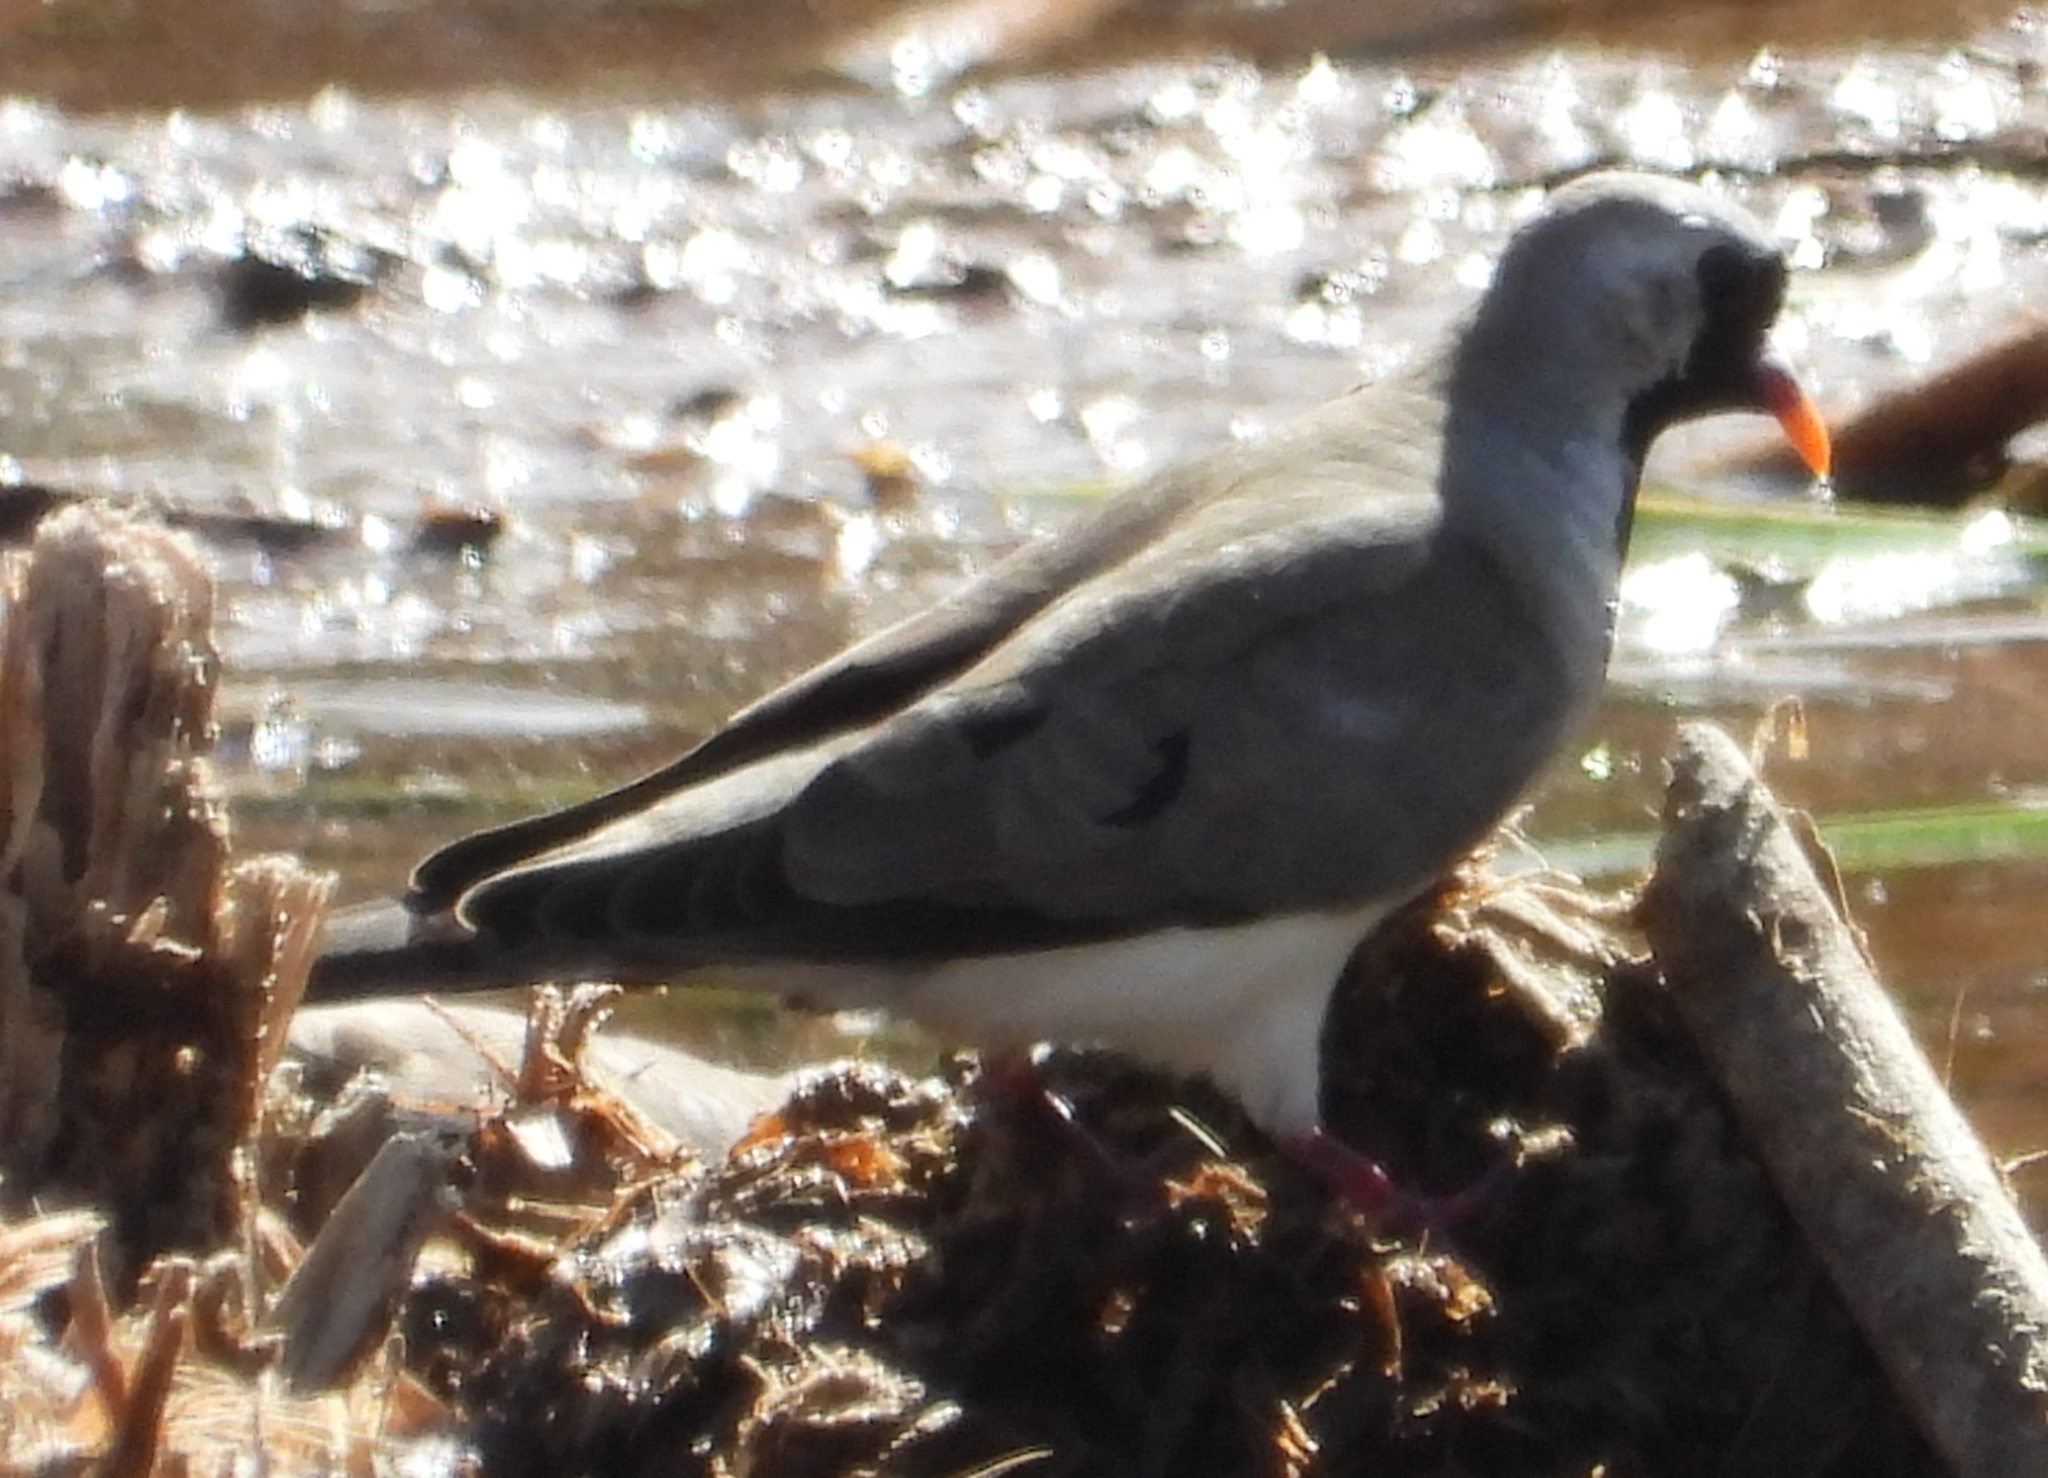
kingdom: Animalia
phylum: Chordata
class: Aves
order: Columbiformes
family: Columbidae
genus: Oena
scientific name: Oena capensis
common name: Namaqua dove
